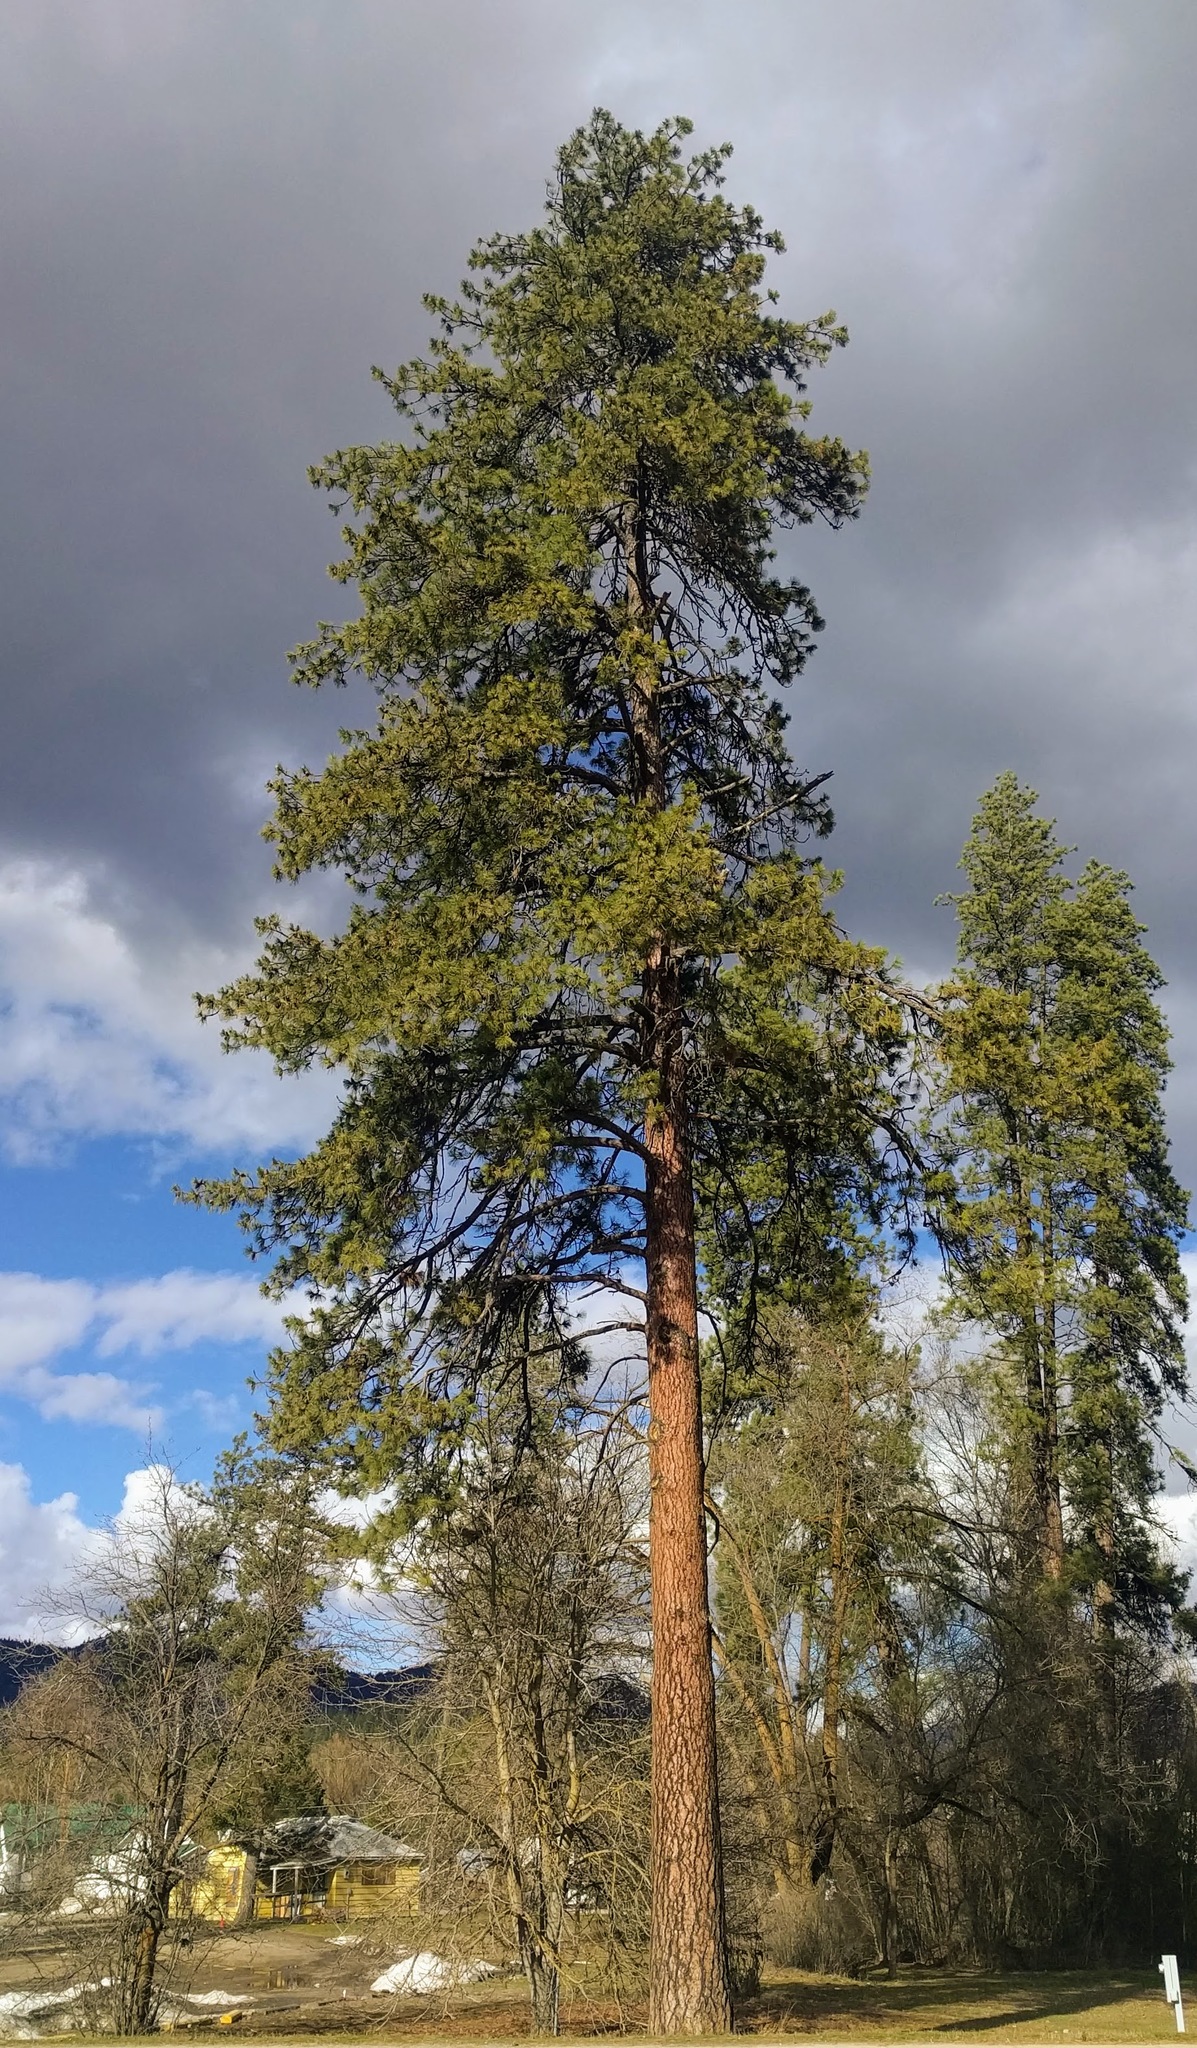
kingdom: Plantae
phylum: Tracheophyta
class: Pinopsida
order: Pinales
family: Pinaceae
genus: Pinus
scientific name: Pinus ponderosa
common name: Western yellow-pine
